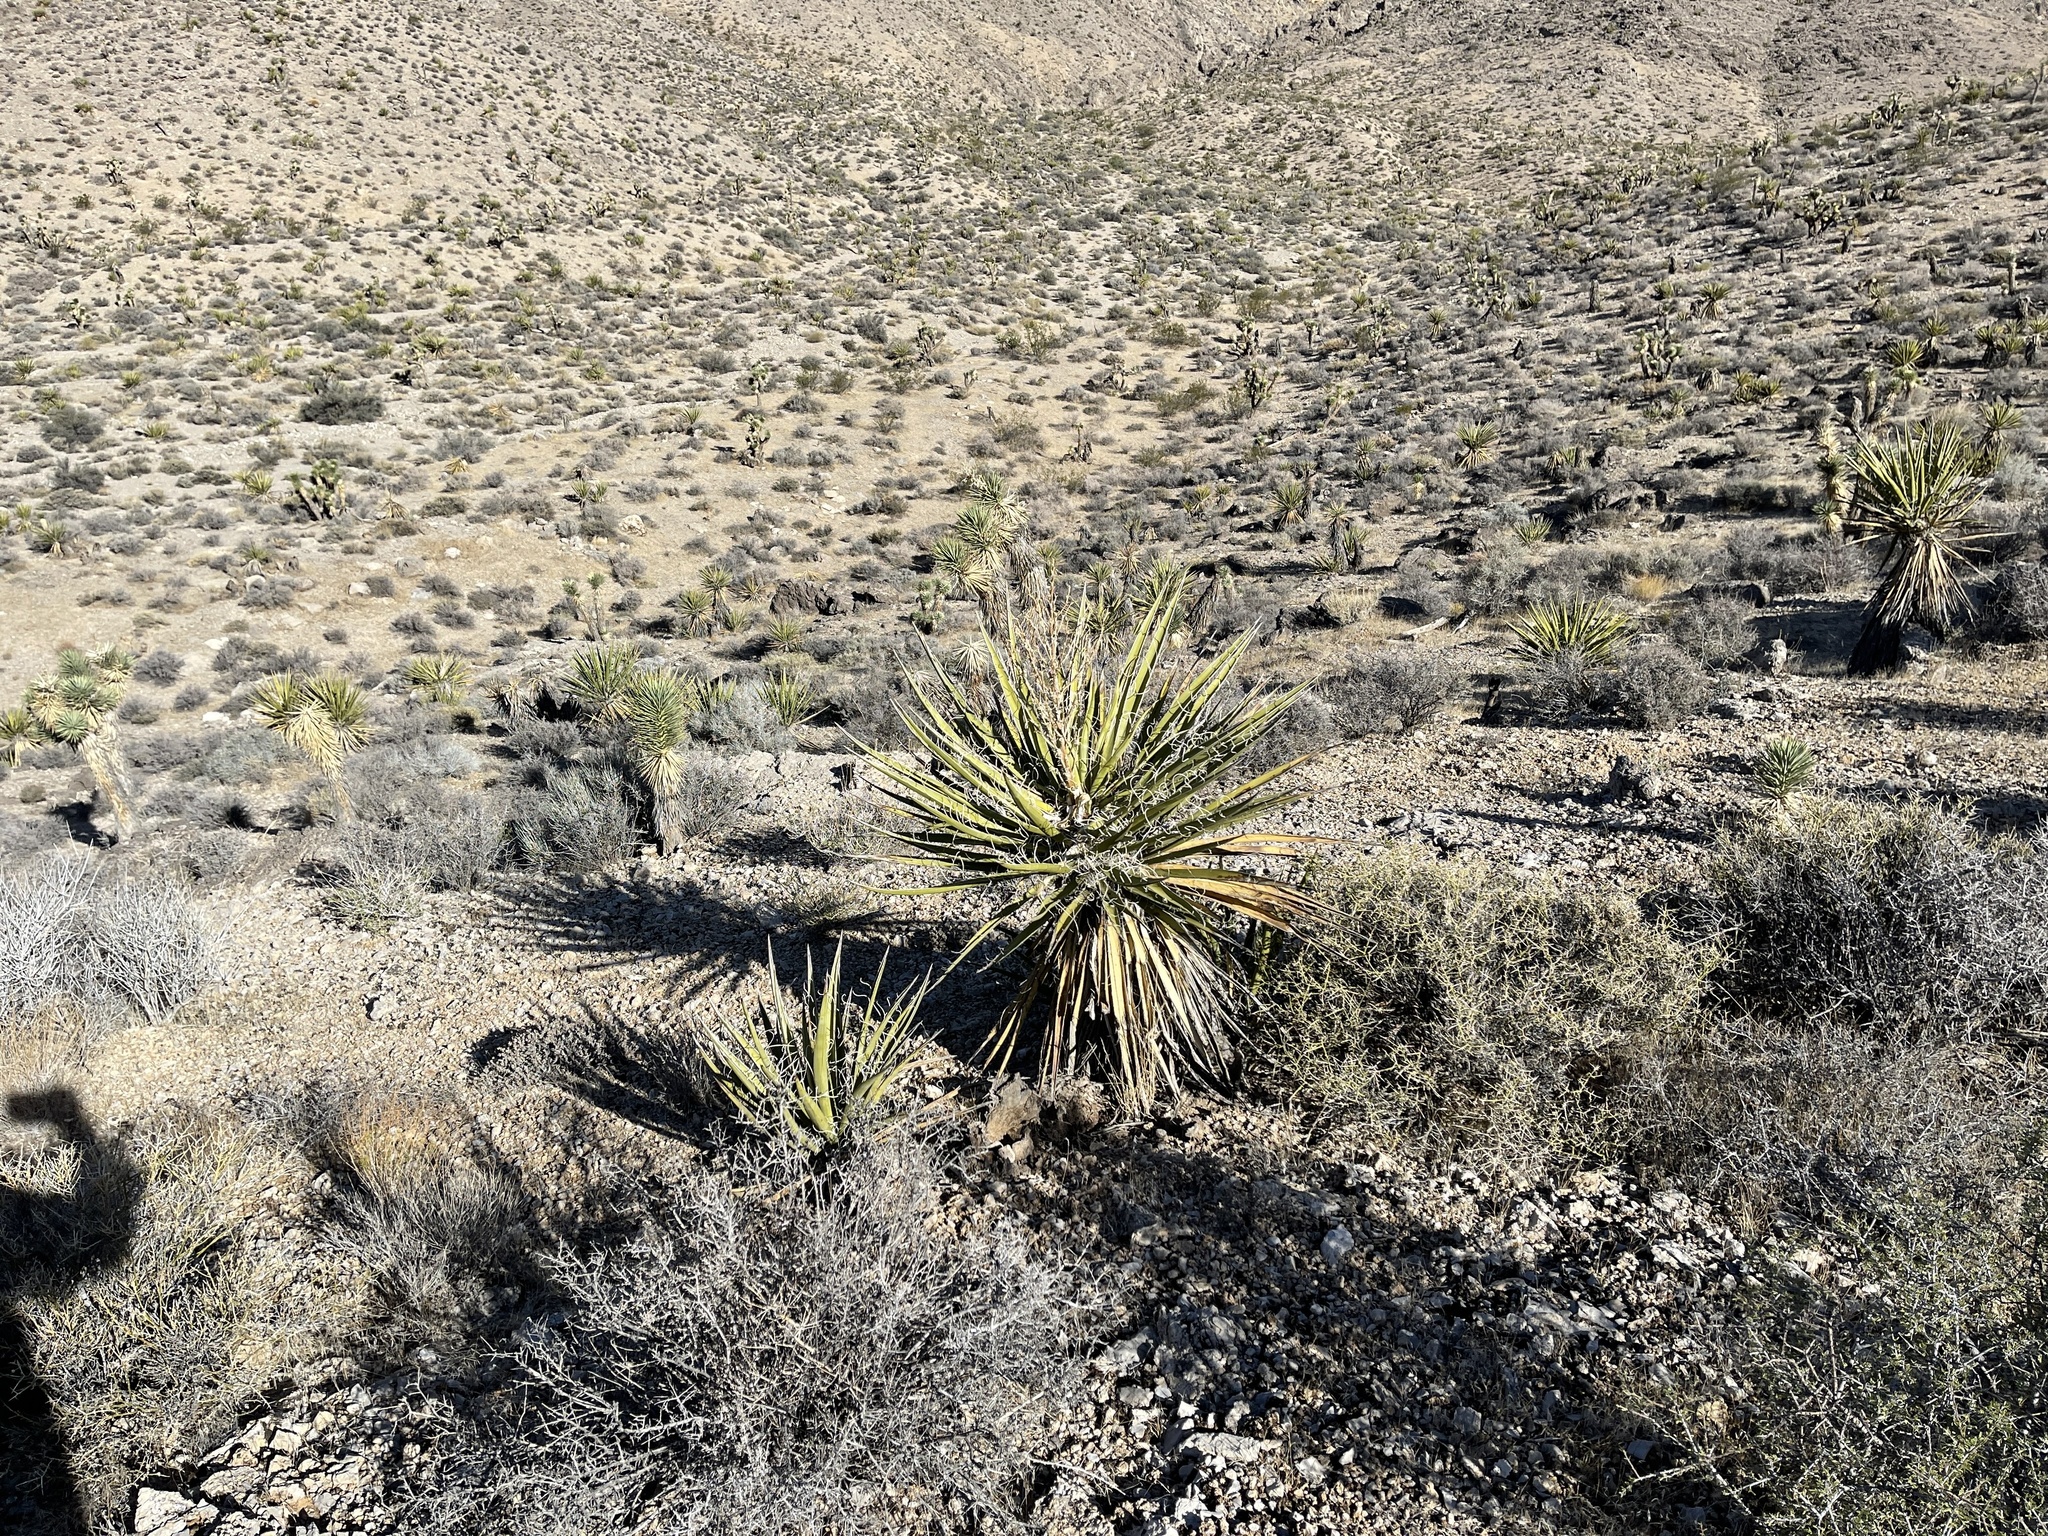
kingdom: Plantae
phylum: Tracheophyta
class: Liliopsida
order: Asparagales
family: Asparagaceae
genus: Yucca
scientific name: Yucca schidigera
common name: Mojave yucca
